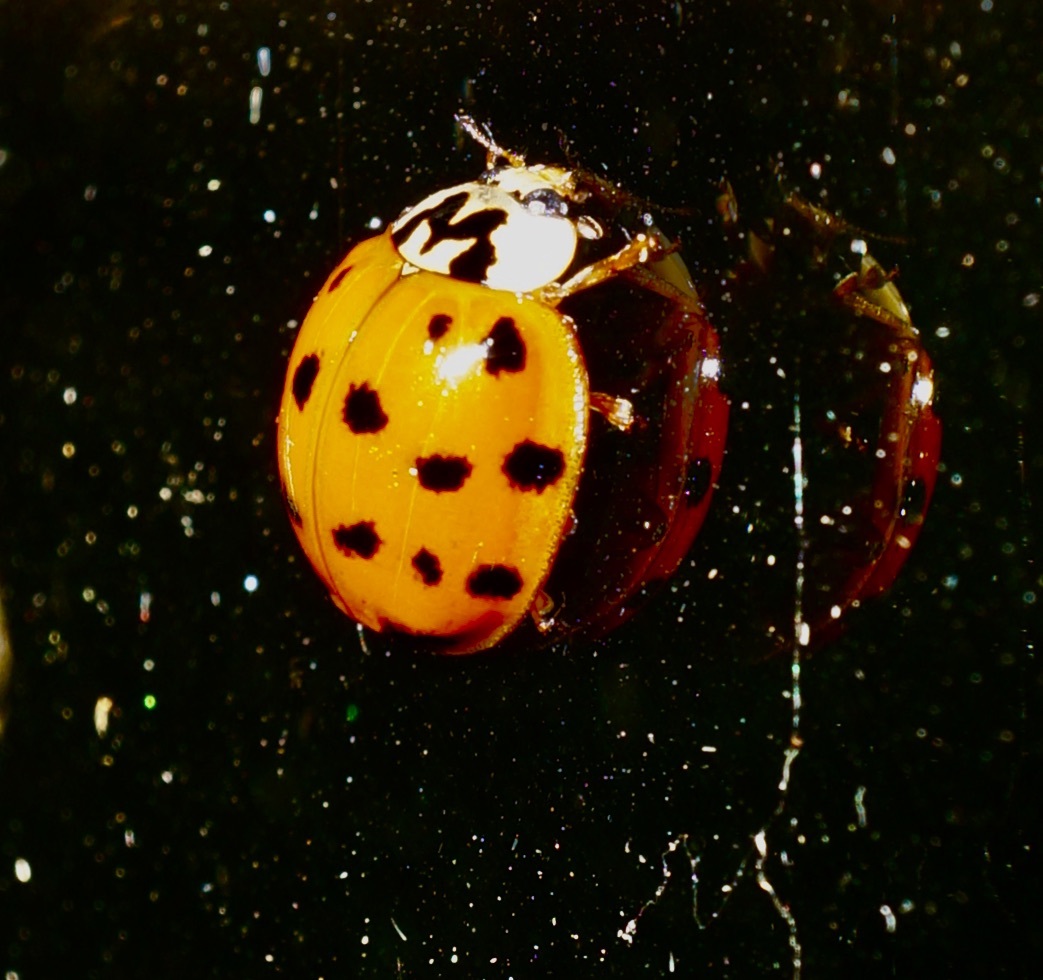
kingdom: Animalia
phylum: Arthropoda
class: Insecta
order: Coleoptera
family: Coccinellidae
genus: Harmonia
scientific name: Harmonia axyridis
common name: Harlequin ladybird
